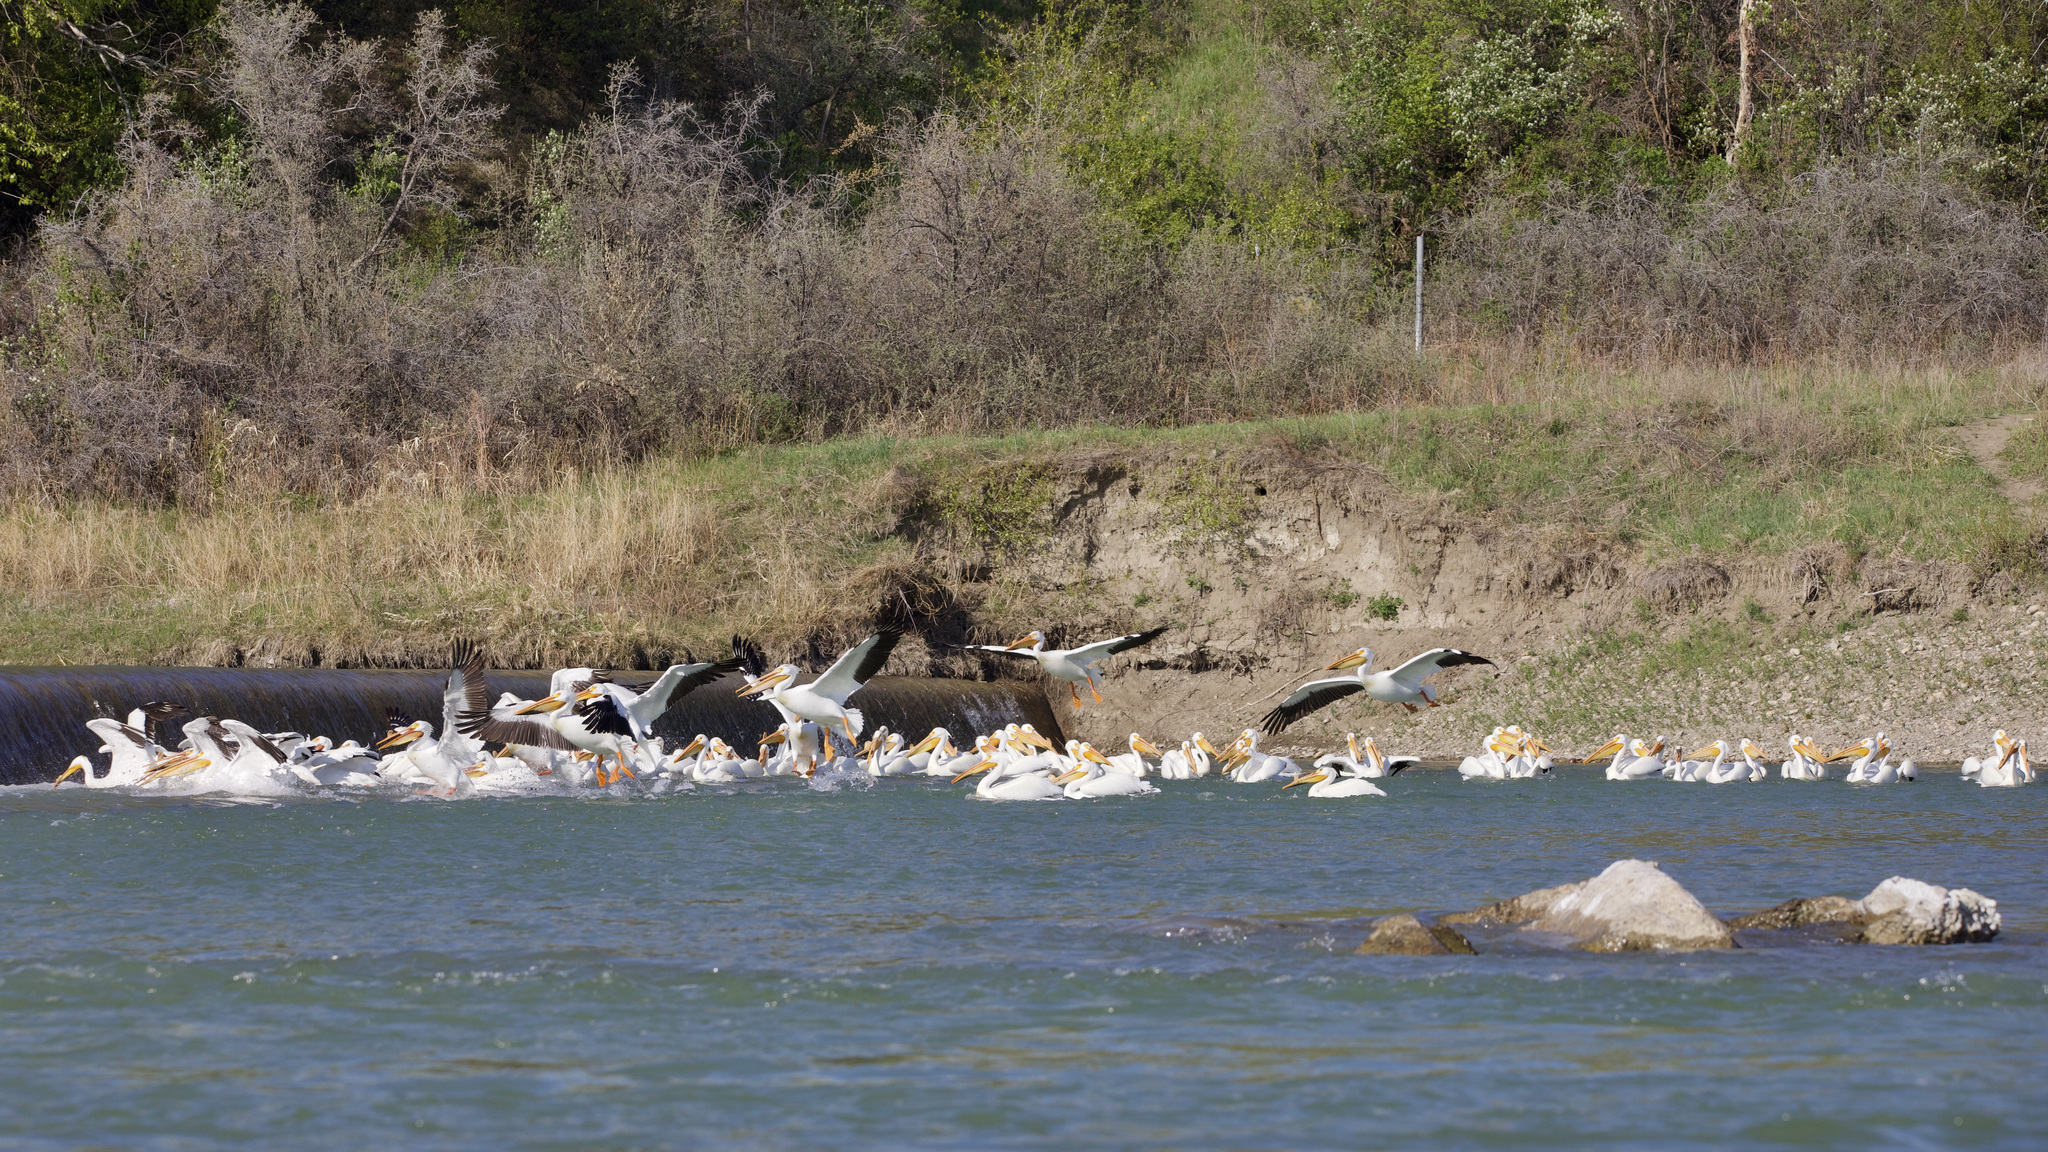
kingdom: Animalia
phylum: Chordata
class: Aves
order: Pelecaniformes
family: Pelecanidae
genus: Pelecanus
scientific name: Pelecanus erythrorhynchos
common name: American white pelican
